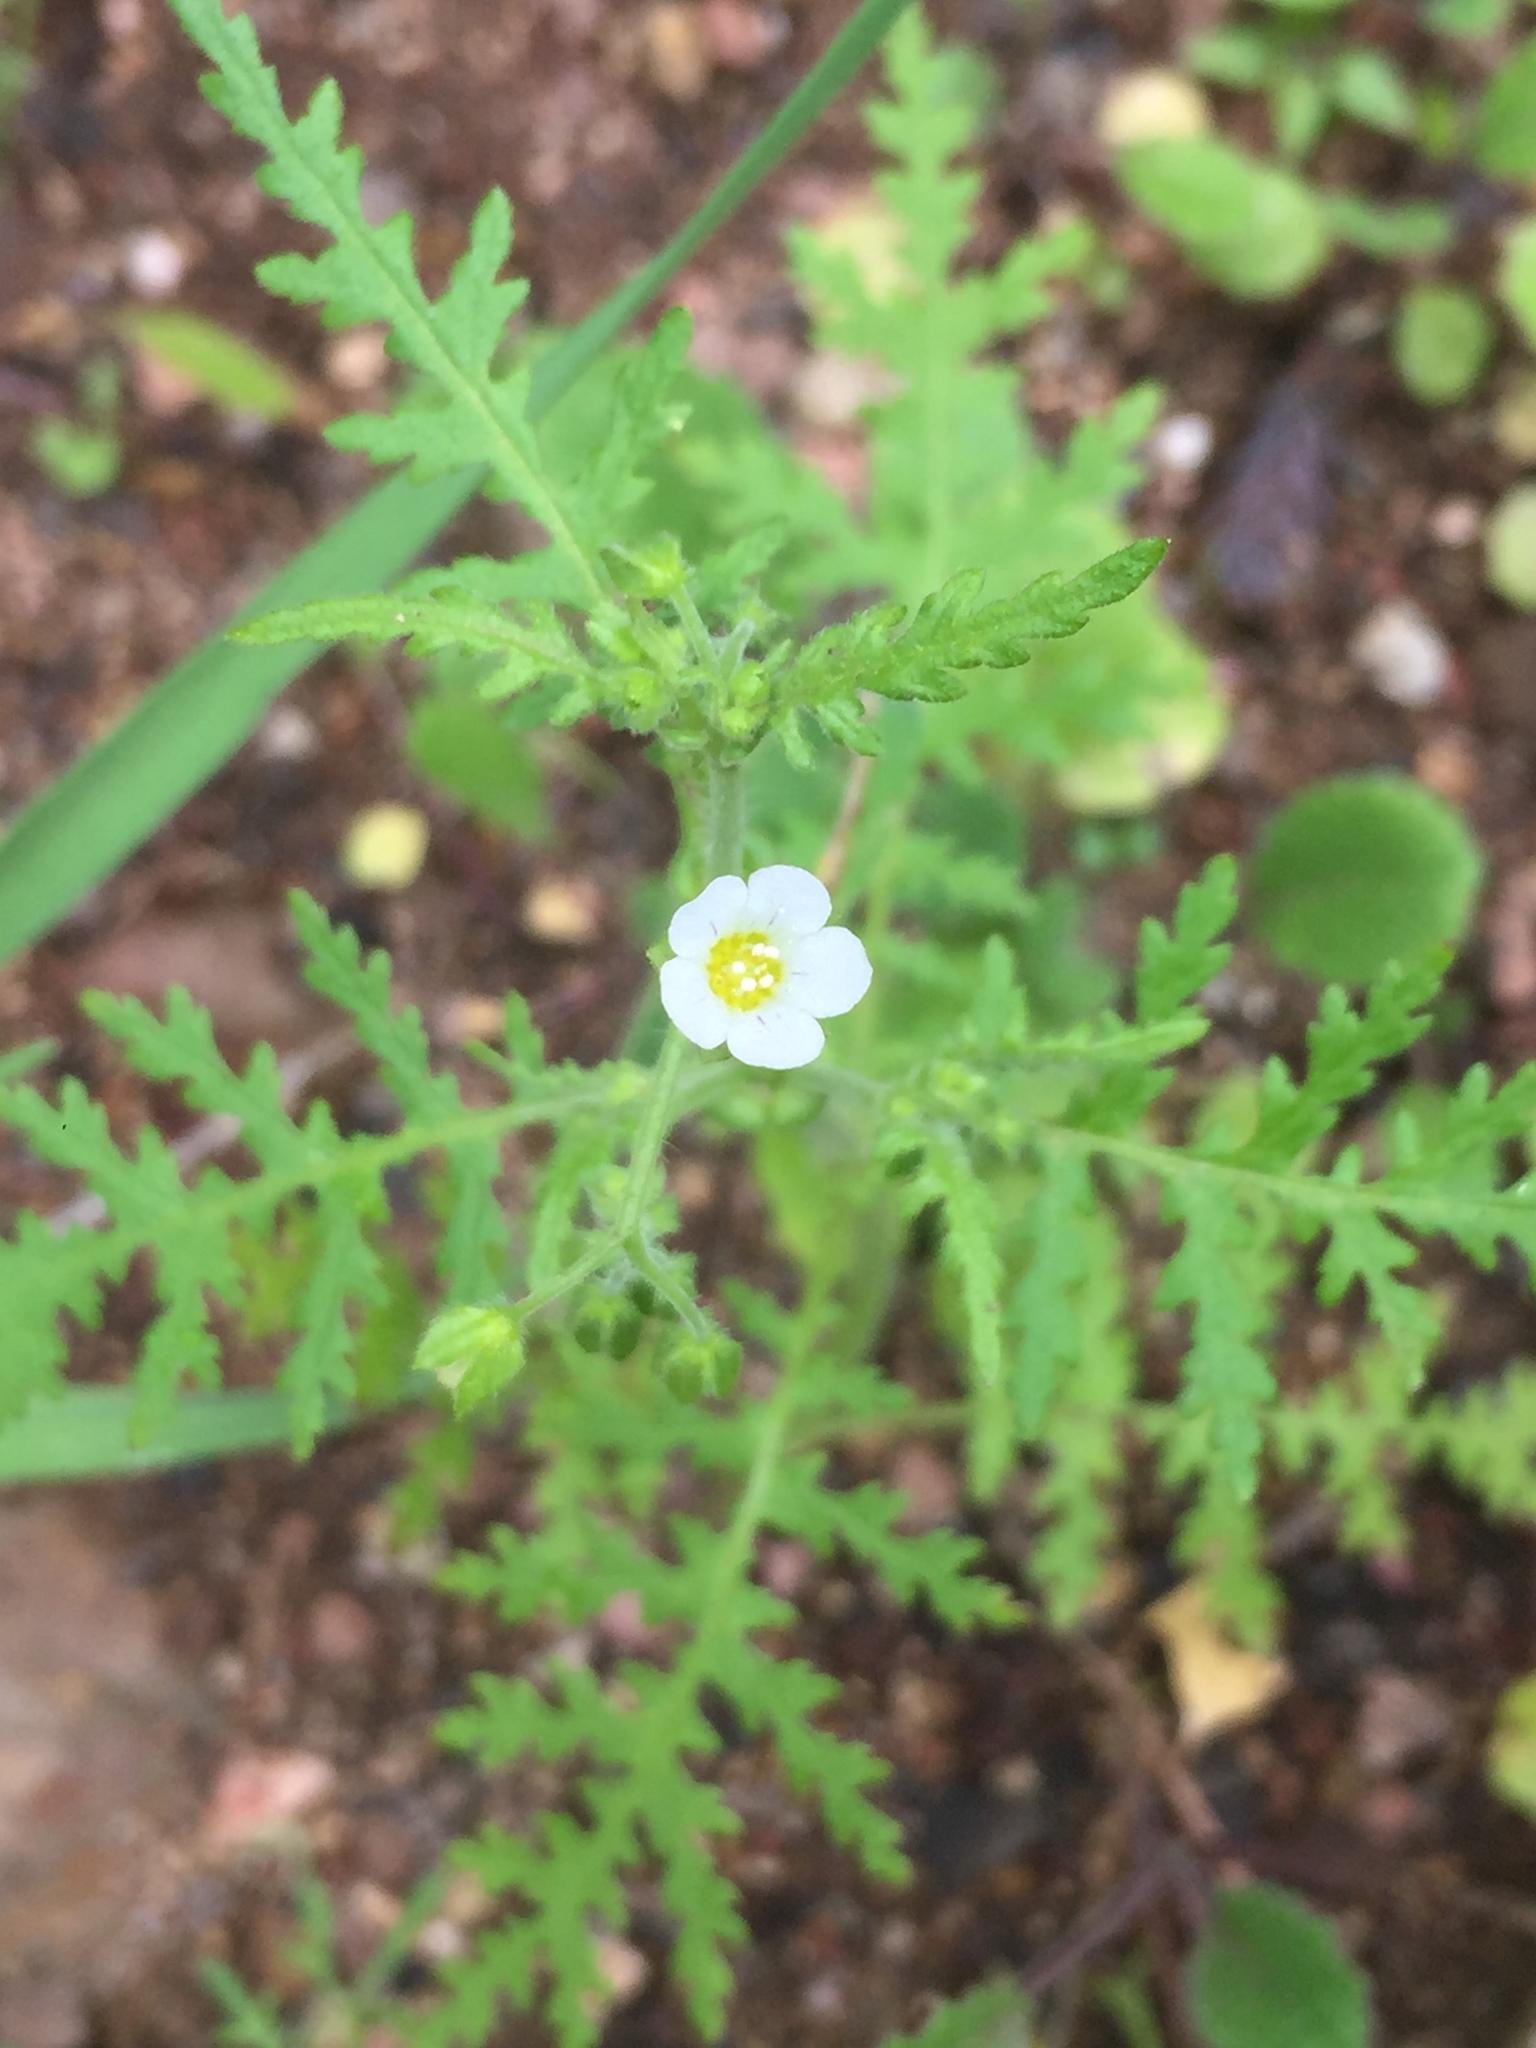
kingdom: Plantae
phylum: Tracheophyta
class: Magnoliopsida
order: Boraginales
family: Hydrophyllaceae
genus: Eucrypta
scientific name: Eucrypta chrysanthemifolia
